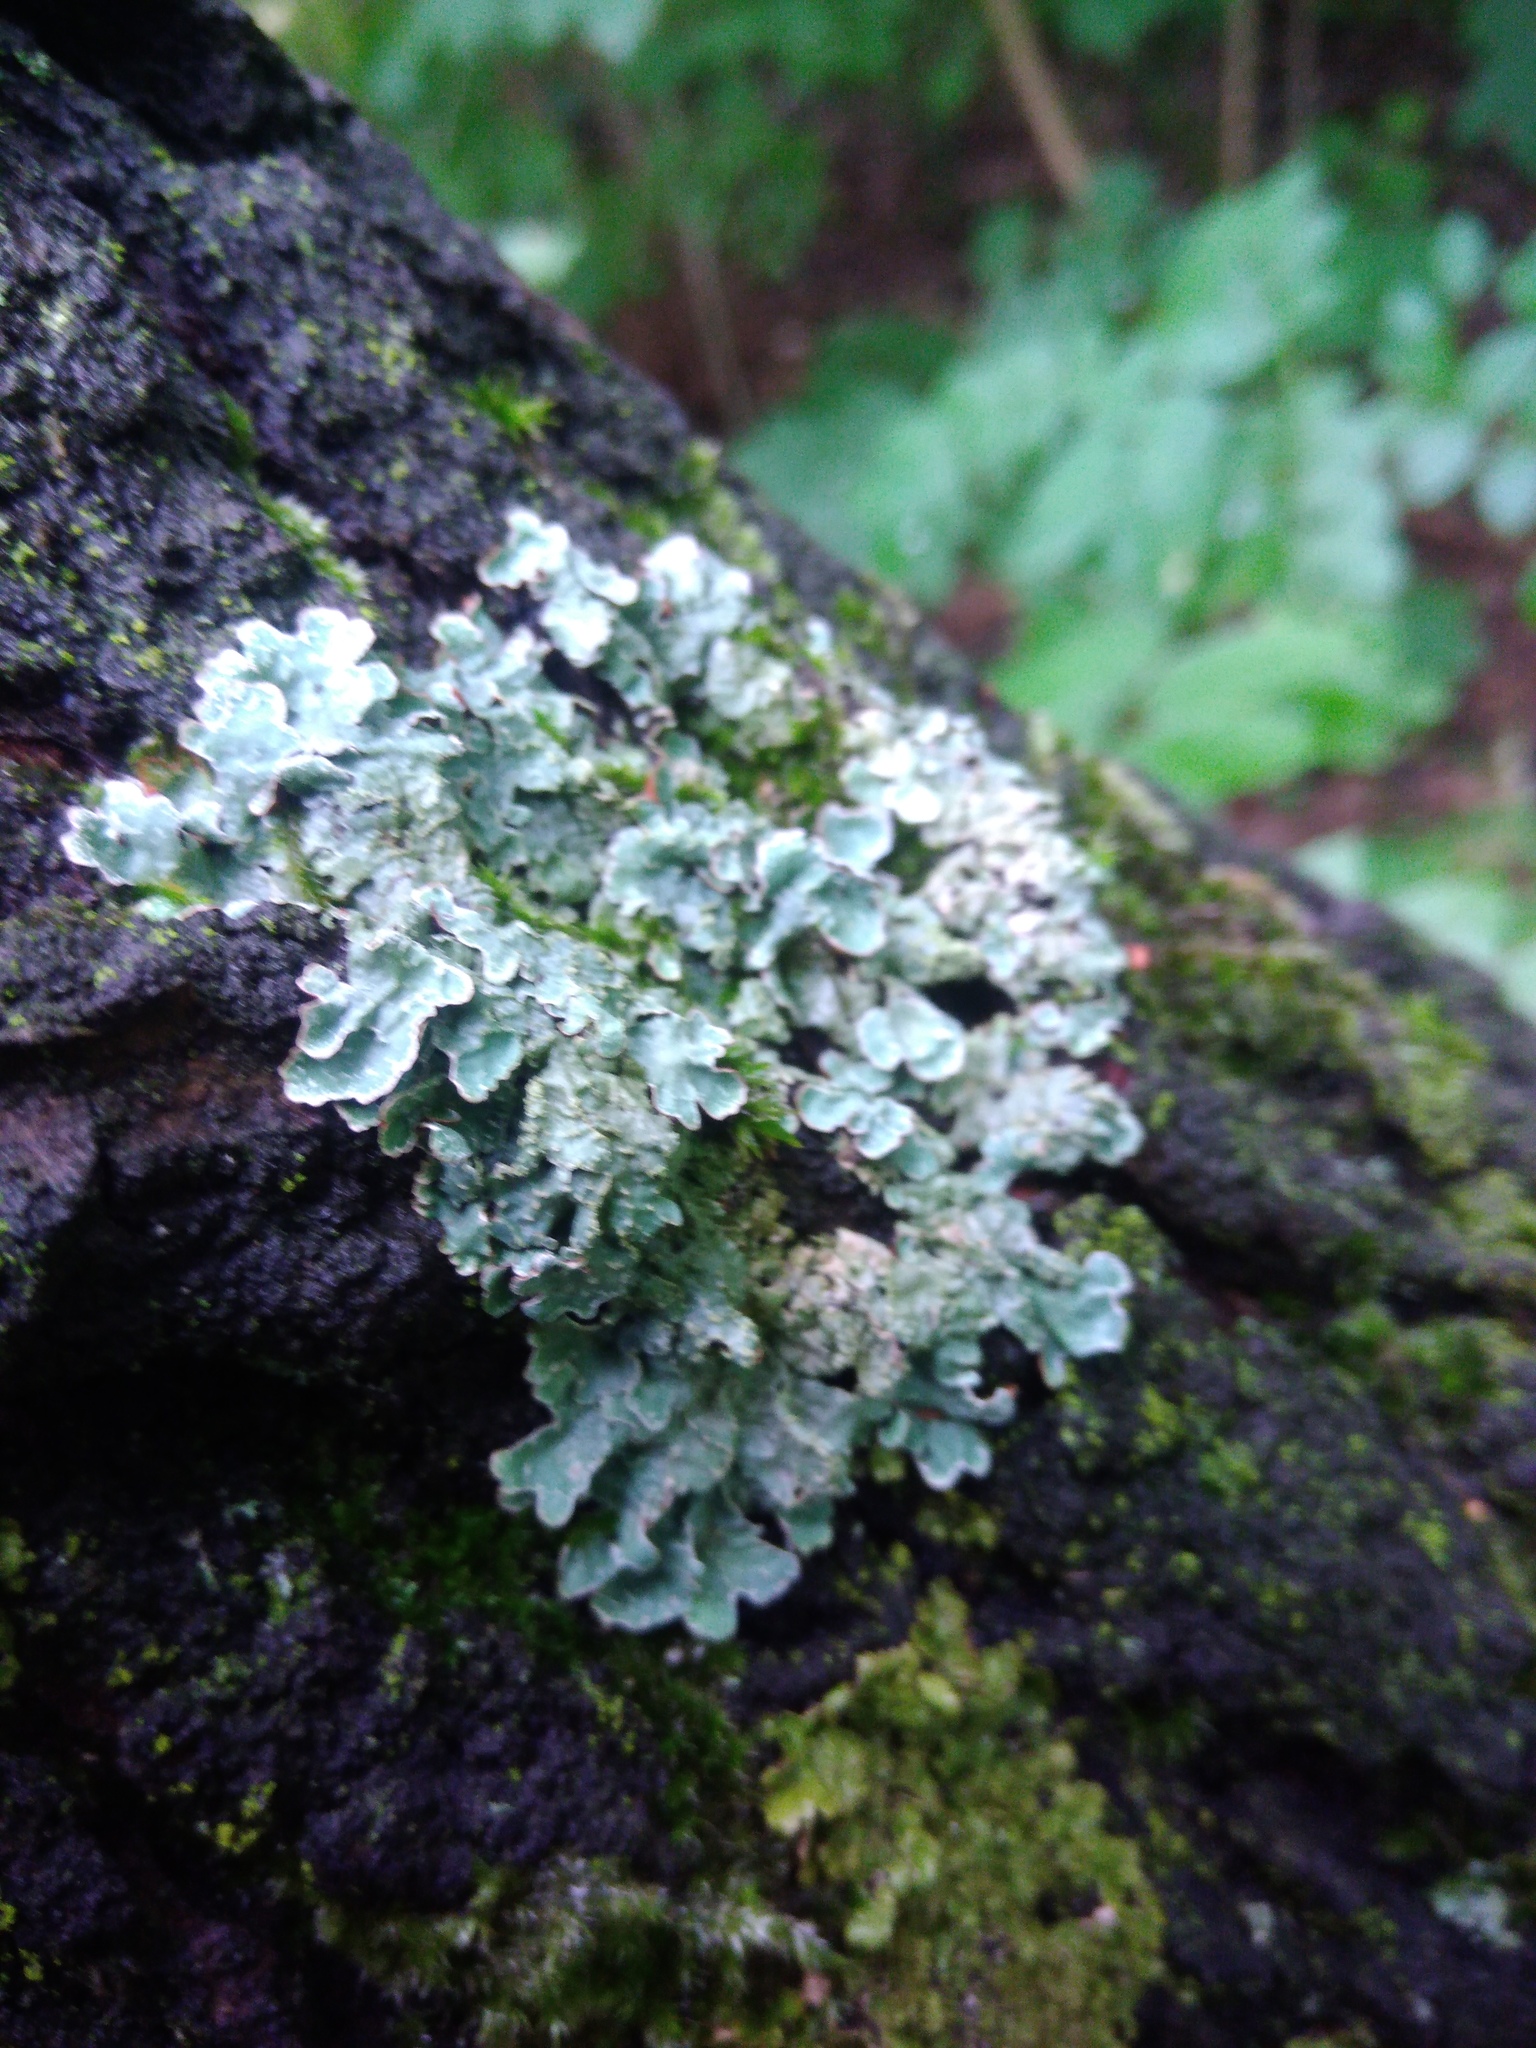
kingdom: Fungi
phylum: Ascomycota
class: Lecanoromycetes
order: Lecanorales
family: Parmeliaceae
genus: Parmelia
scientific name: Parmelia sulcata
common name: Netted shield lichen
